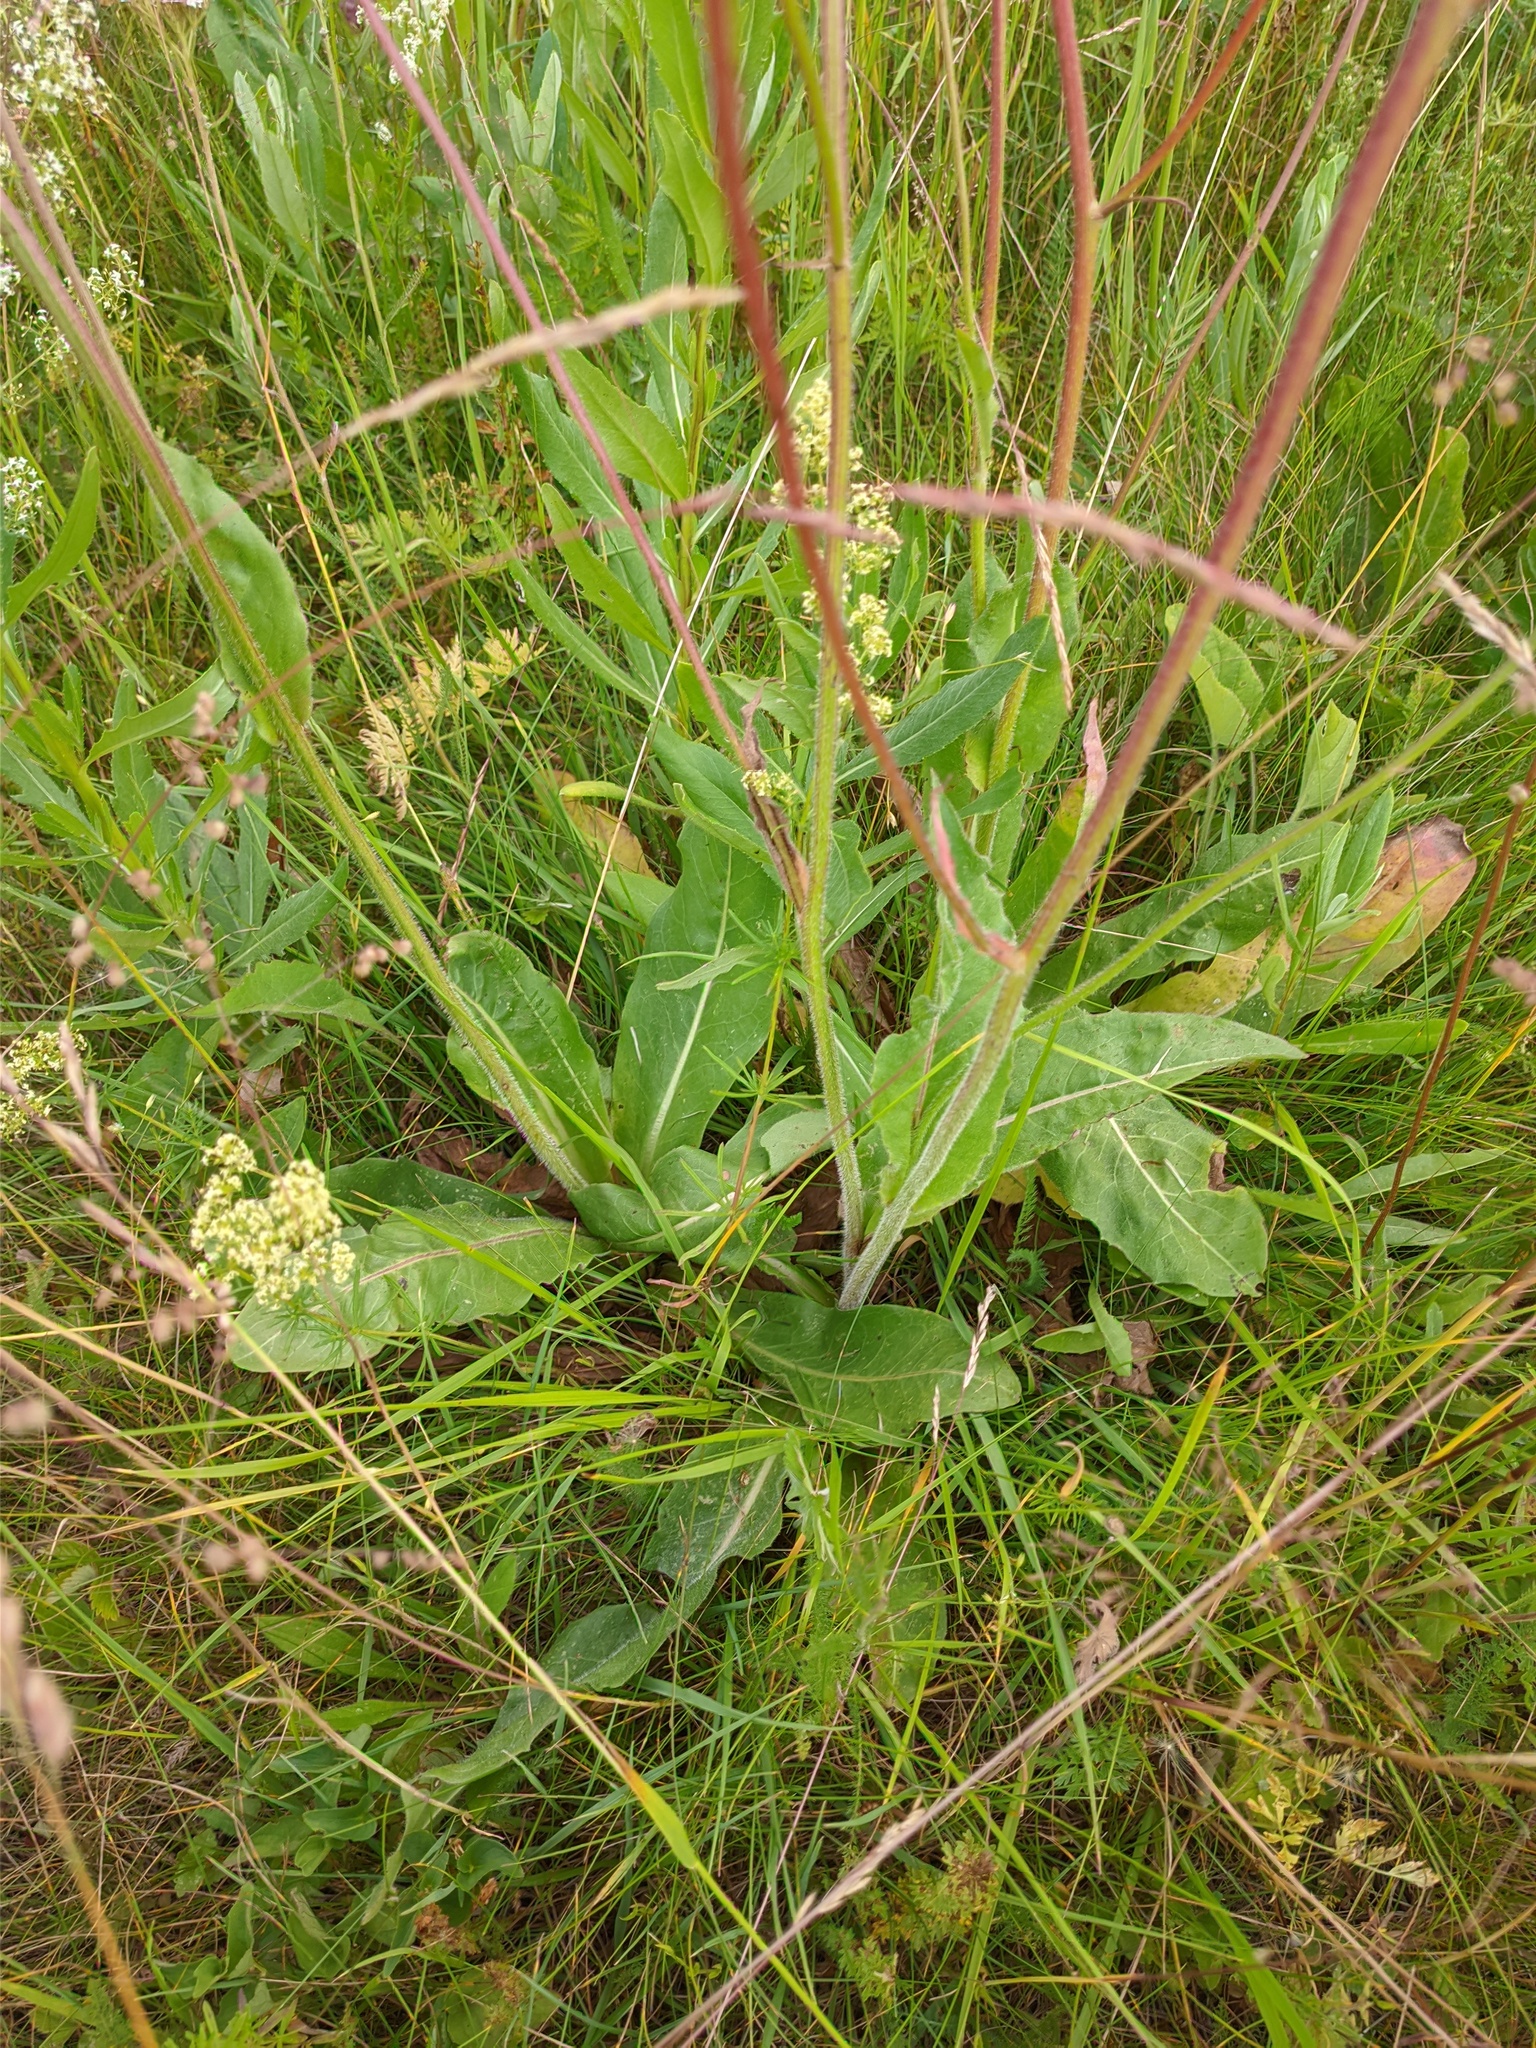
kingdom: Plantae
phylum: Tracheophyta
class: Magnoliopsida
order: Asterales
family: Asteraceae
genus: Trommsdorffia
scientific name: Trommsdorffia maculata
